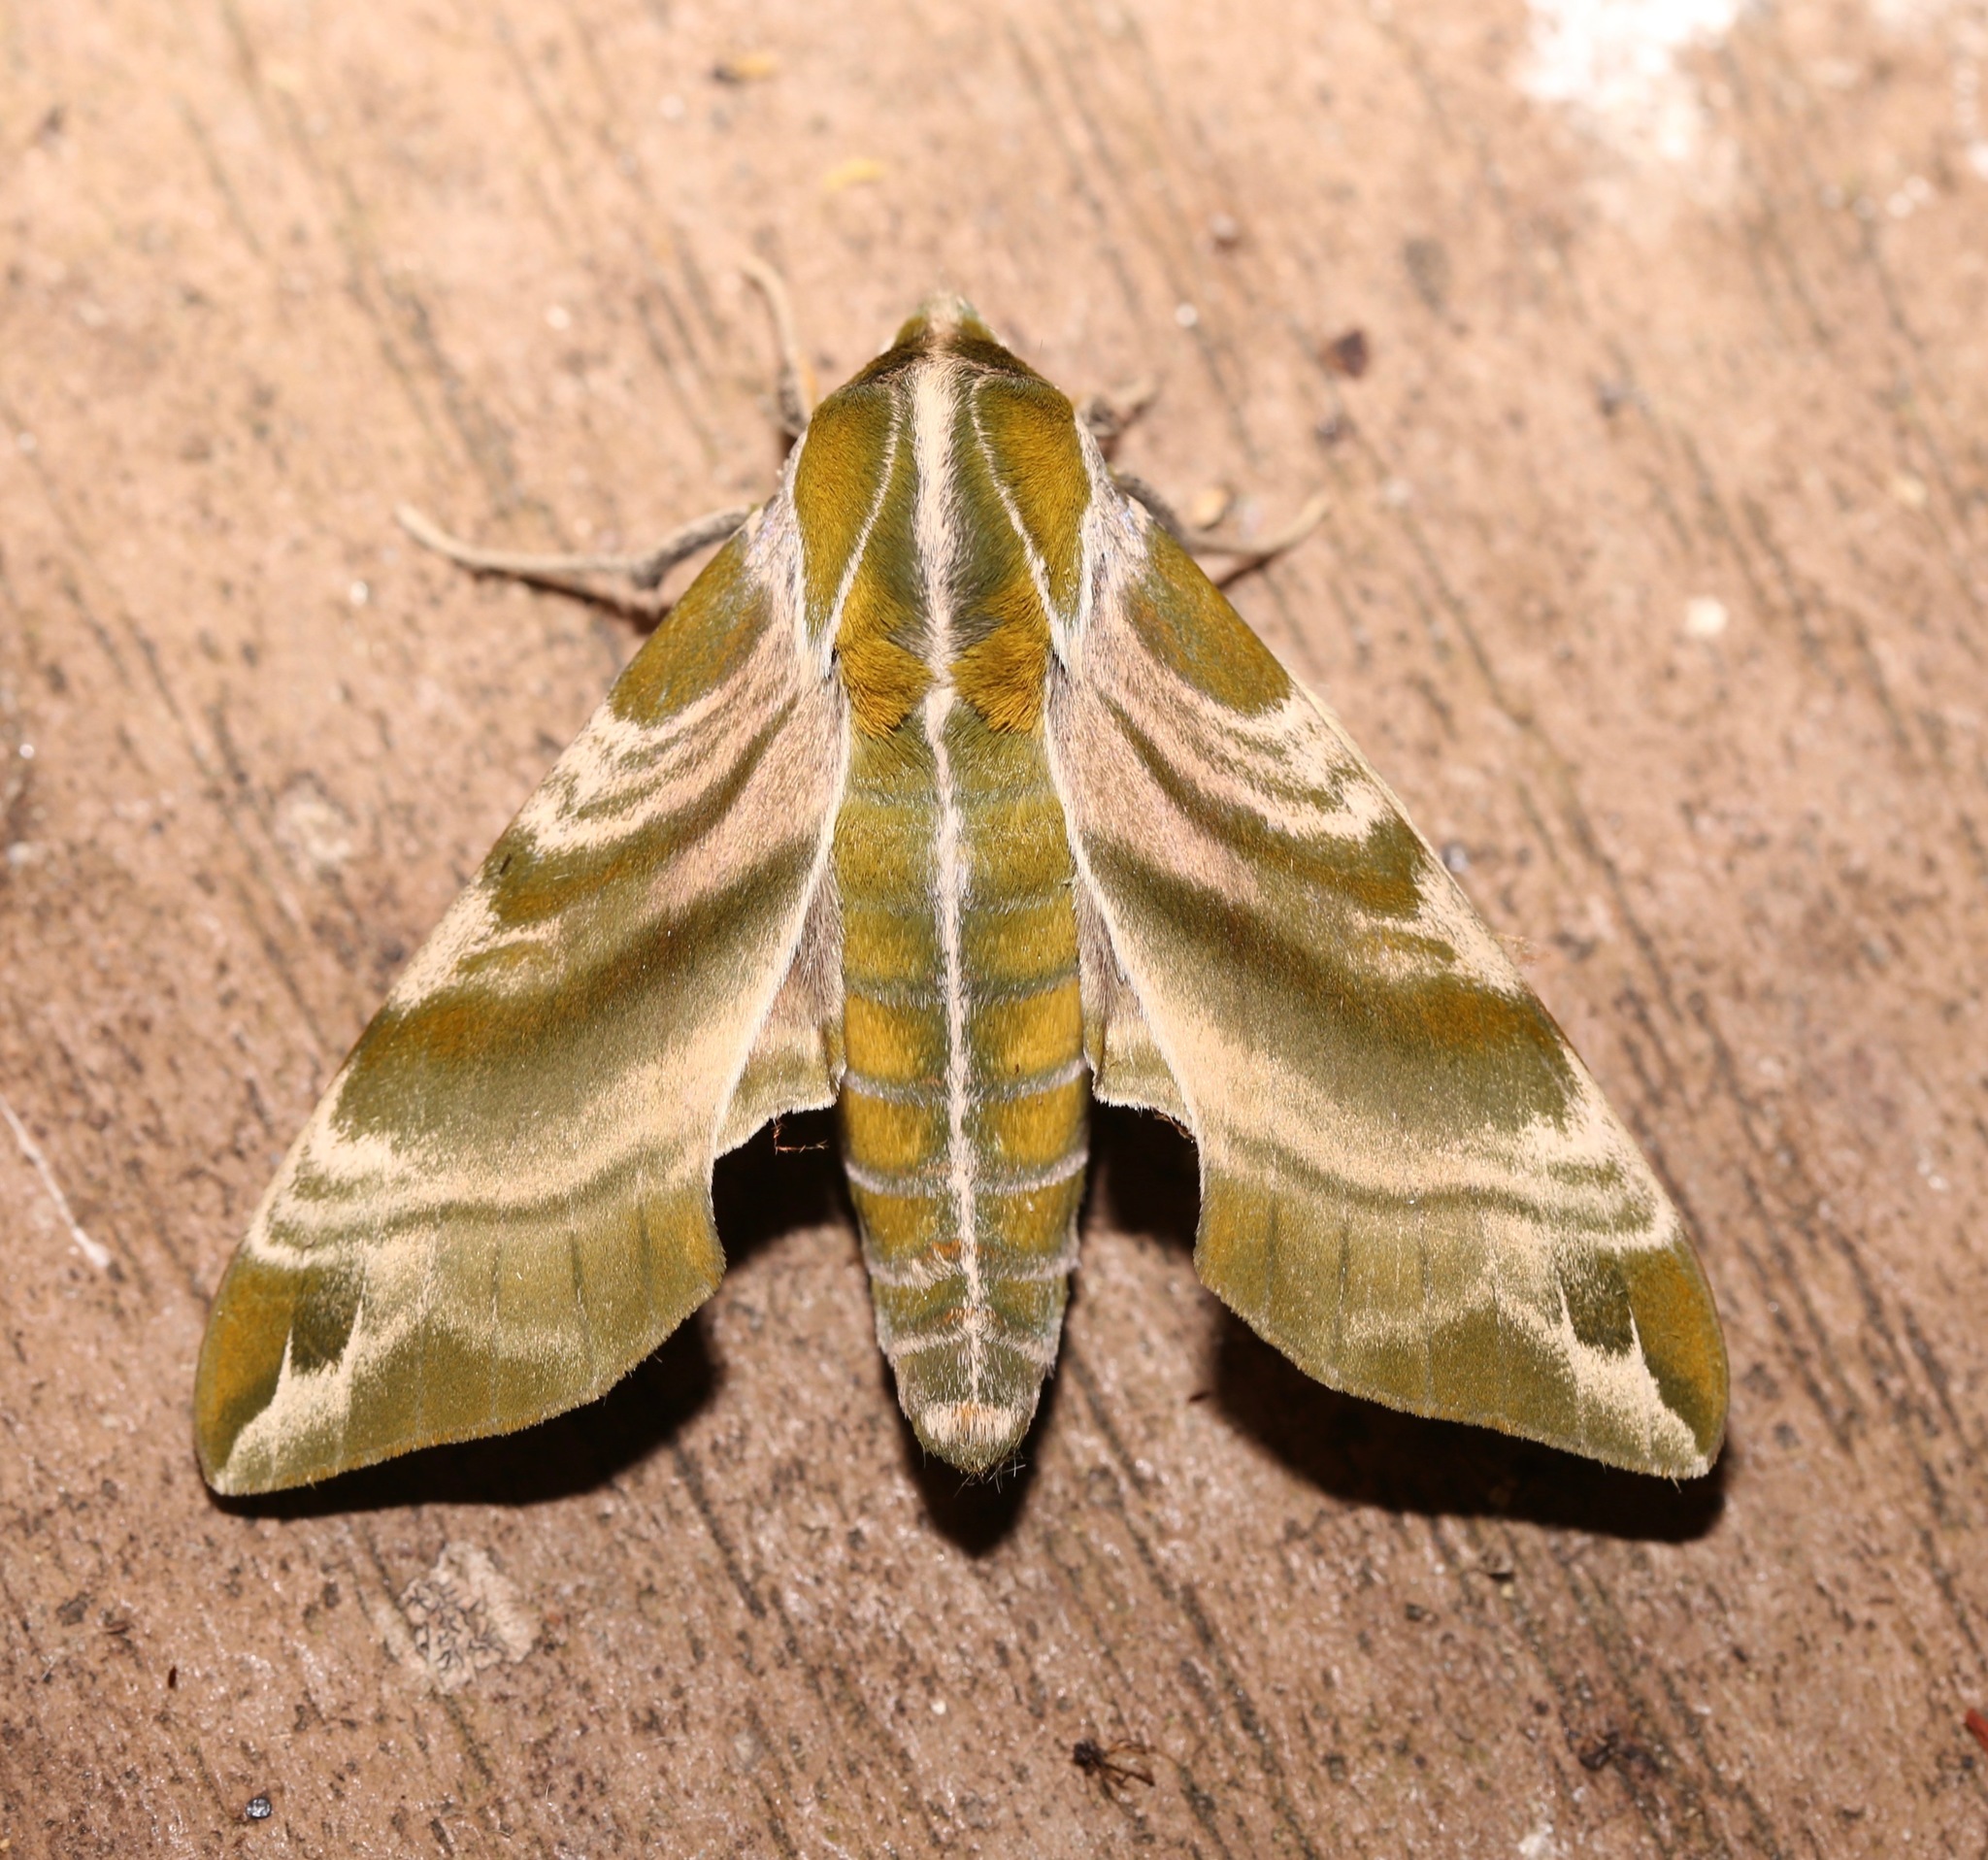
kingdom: Animalia
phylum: Arthropoda
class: Insecta
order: Lepidoptera
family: Sphingidae
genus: Darapsa
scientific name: Darapsa versicolor
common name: Hydrangea sphinx
